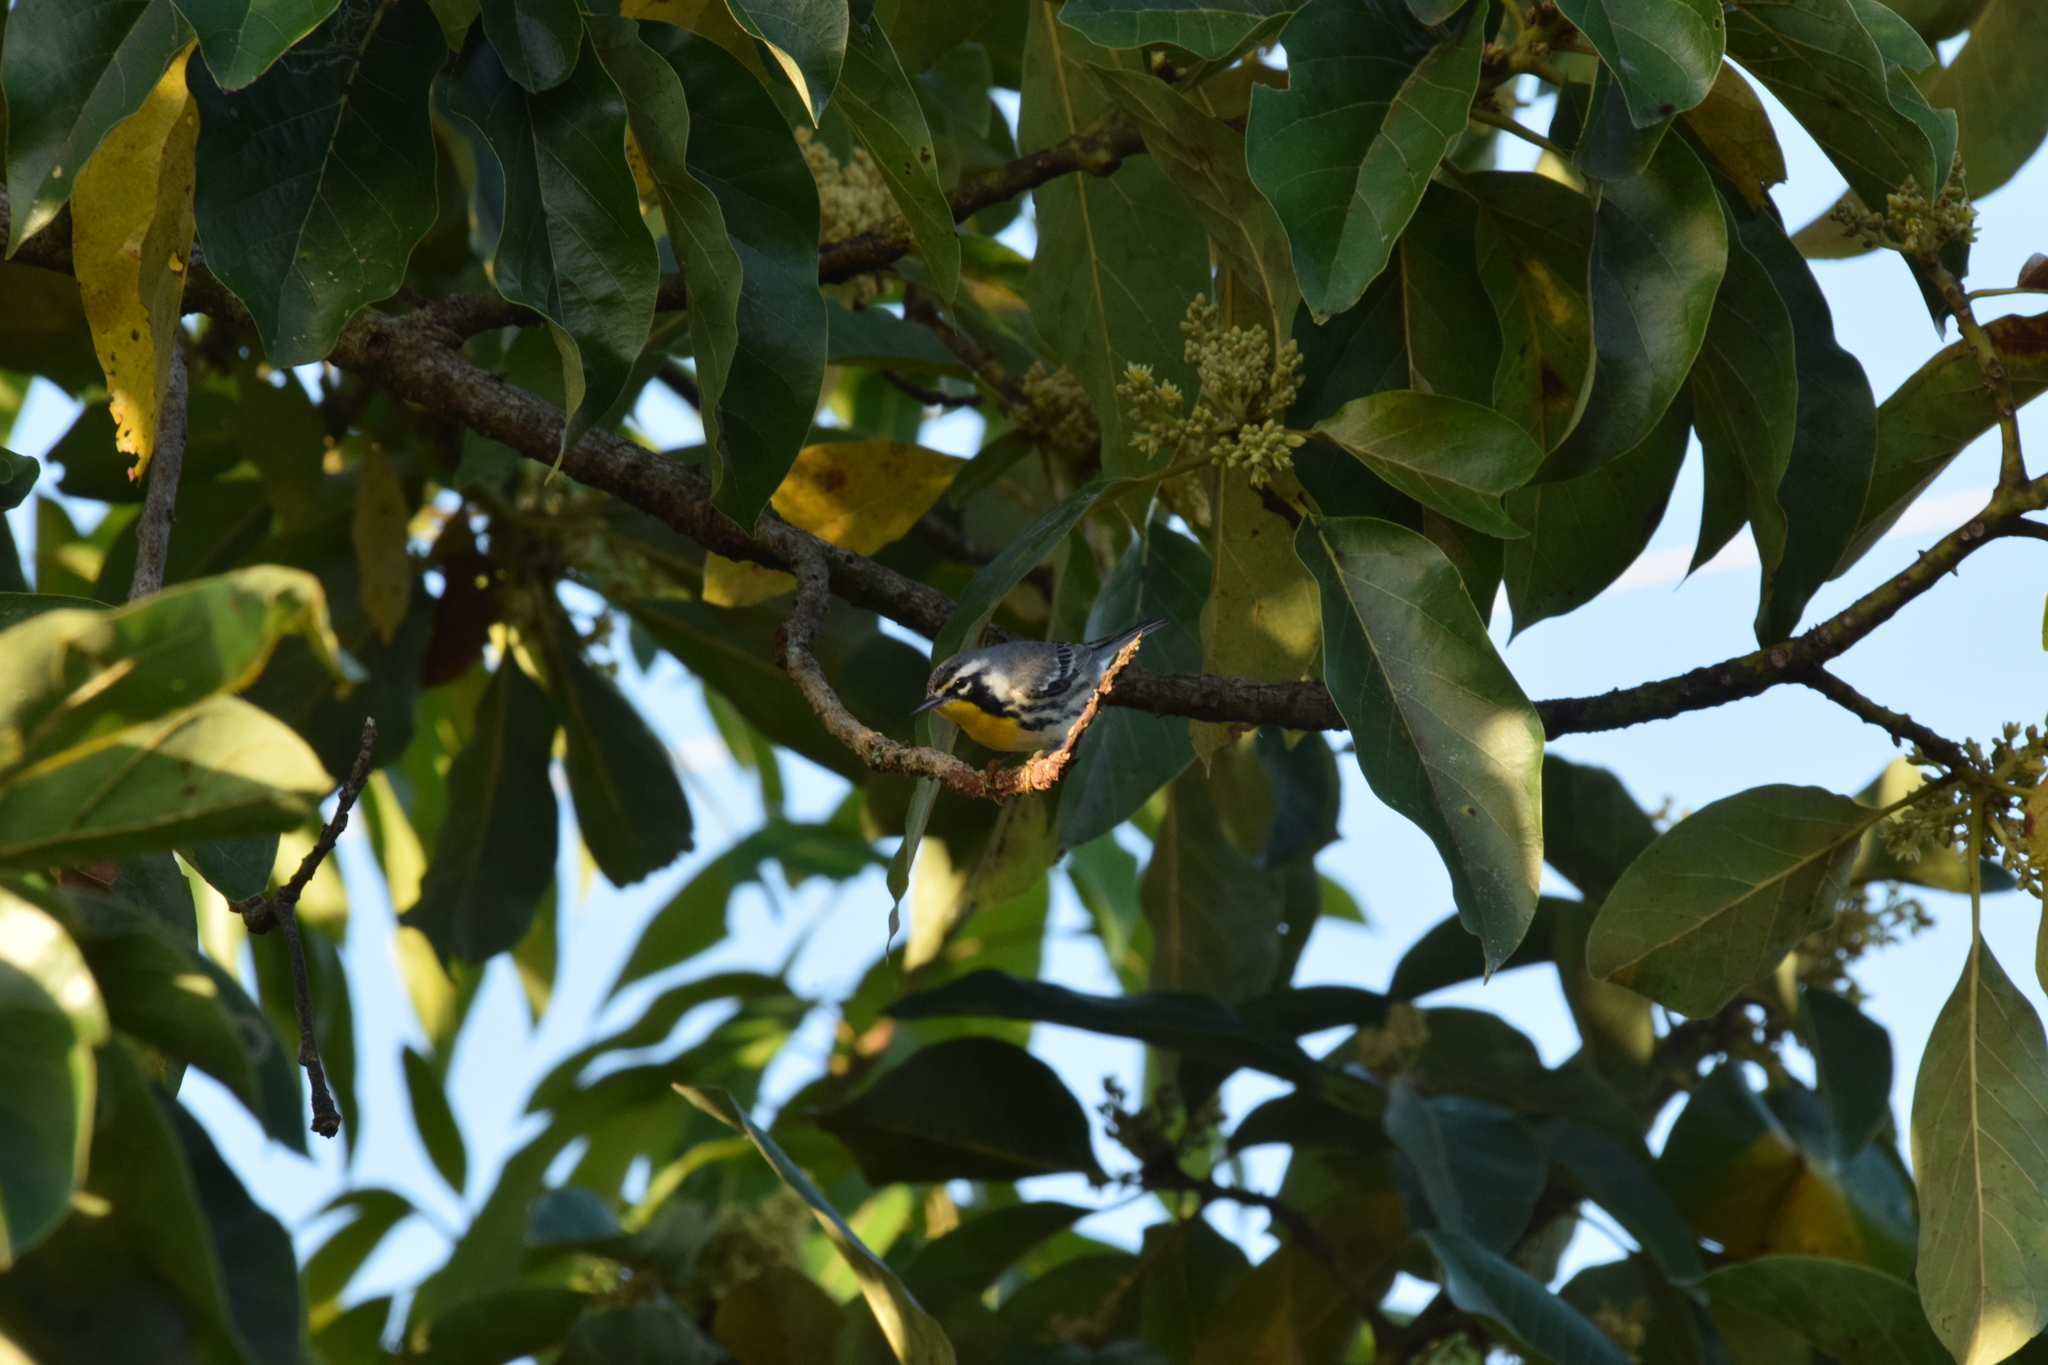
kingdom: Animalia
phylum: Chordata
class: Aves
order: Passeriformes
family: Parulidae
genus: Setophaga
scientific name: Setophaga dominica
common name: Yellow-throated warbler
